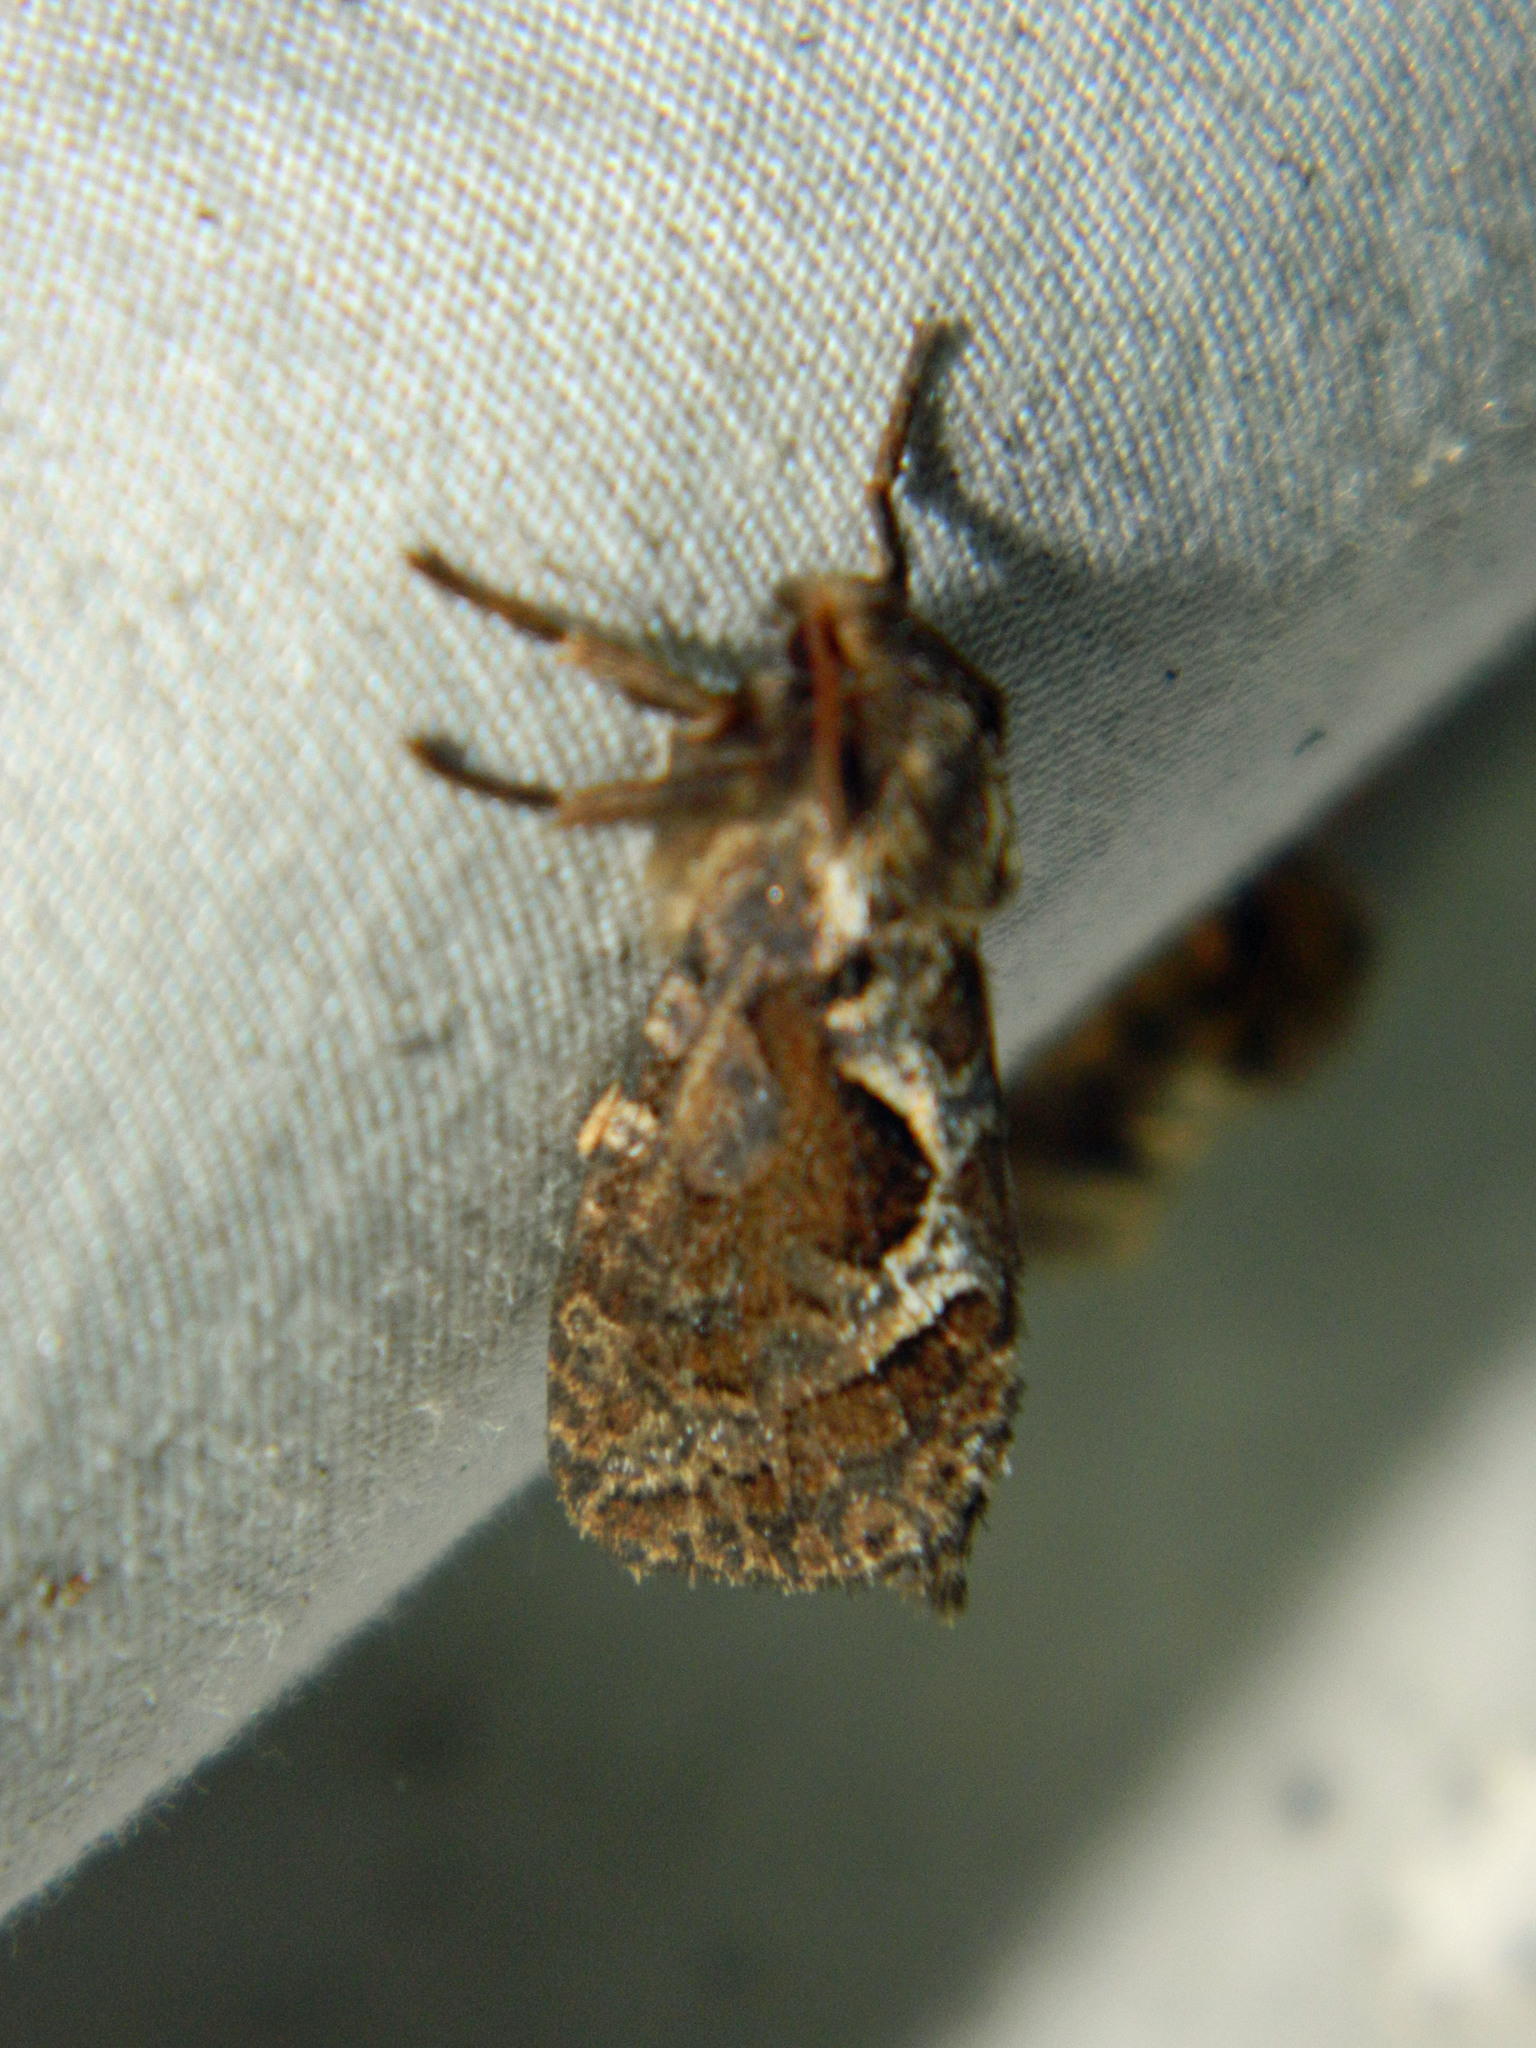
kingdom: Animalia
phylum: Arthropoda
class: Insecta
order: Lepidoptera
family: Hepialidae
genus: Korscheltellus
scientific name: Korscheltellus gracilis
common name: Conifer swift moth
